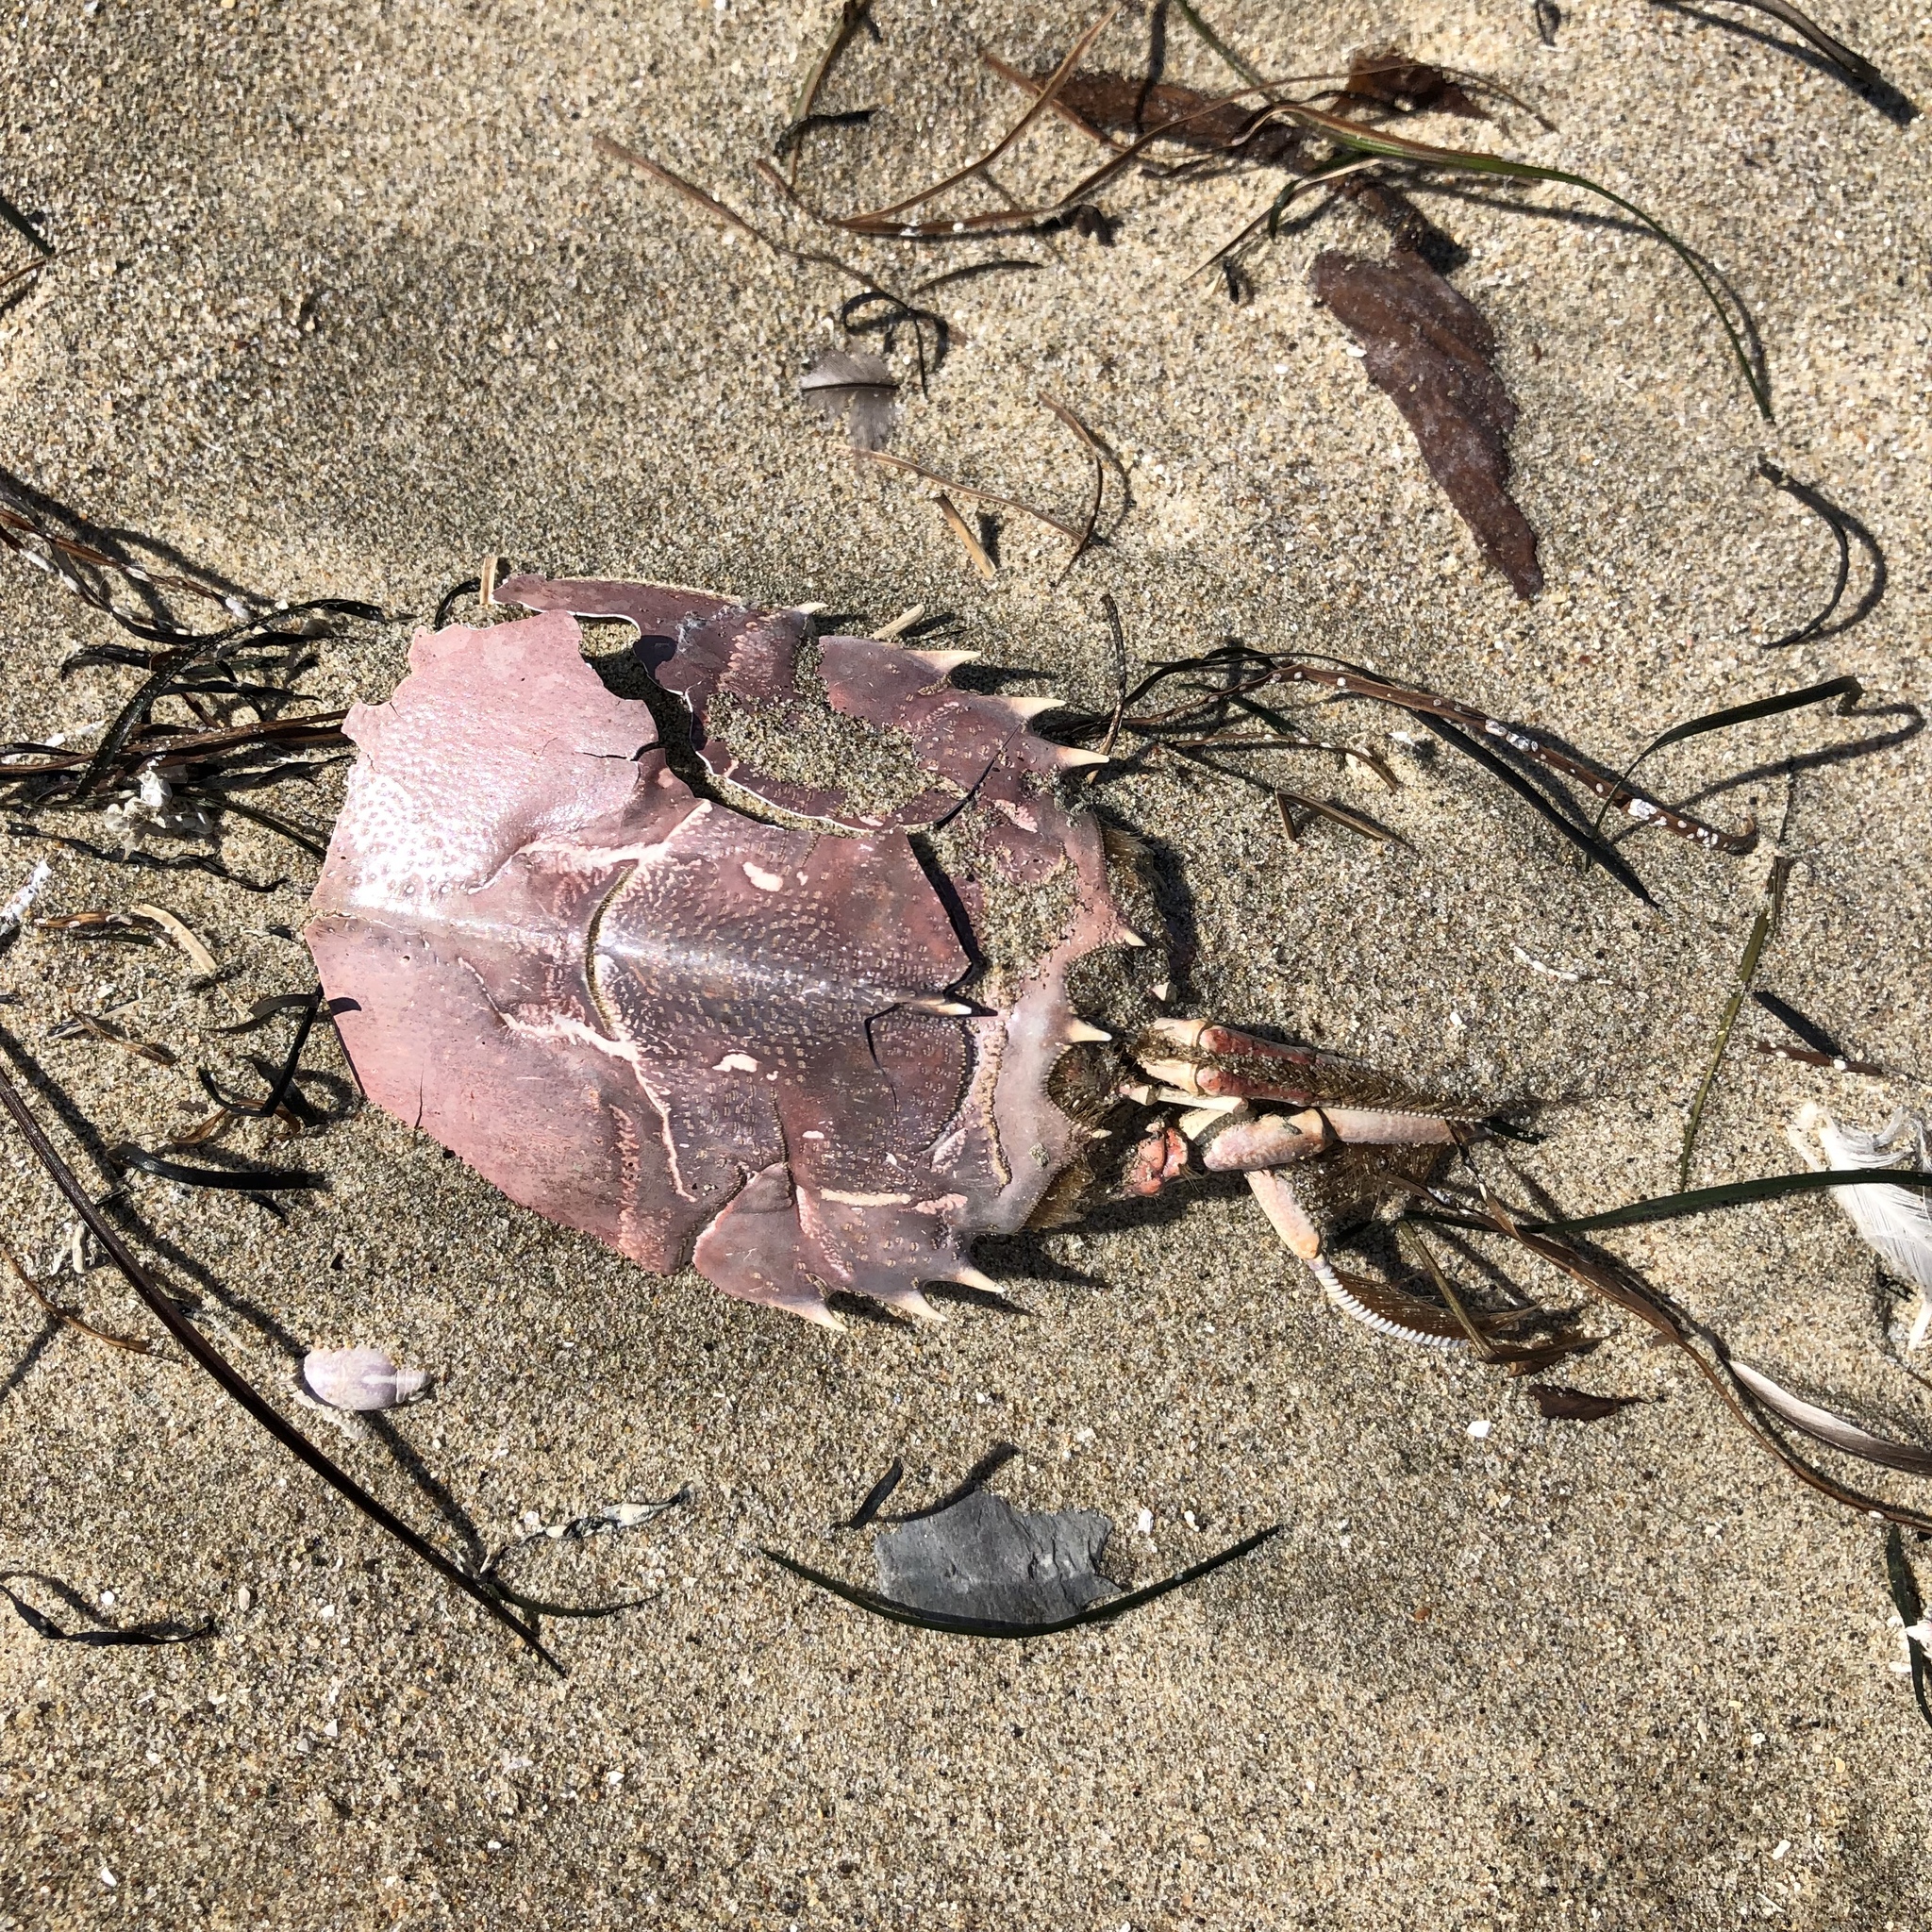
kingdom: Animalia
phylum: Arthropoda
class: Malacostraca
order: Decapoda
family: Blepharipodidae
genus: Blepharipoda
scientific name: Blepharipoda occidentalis
